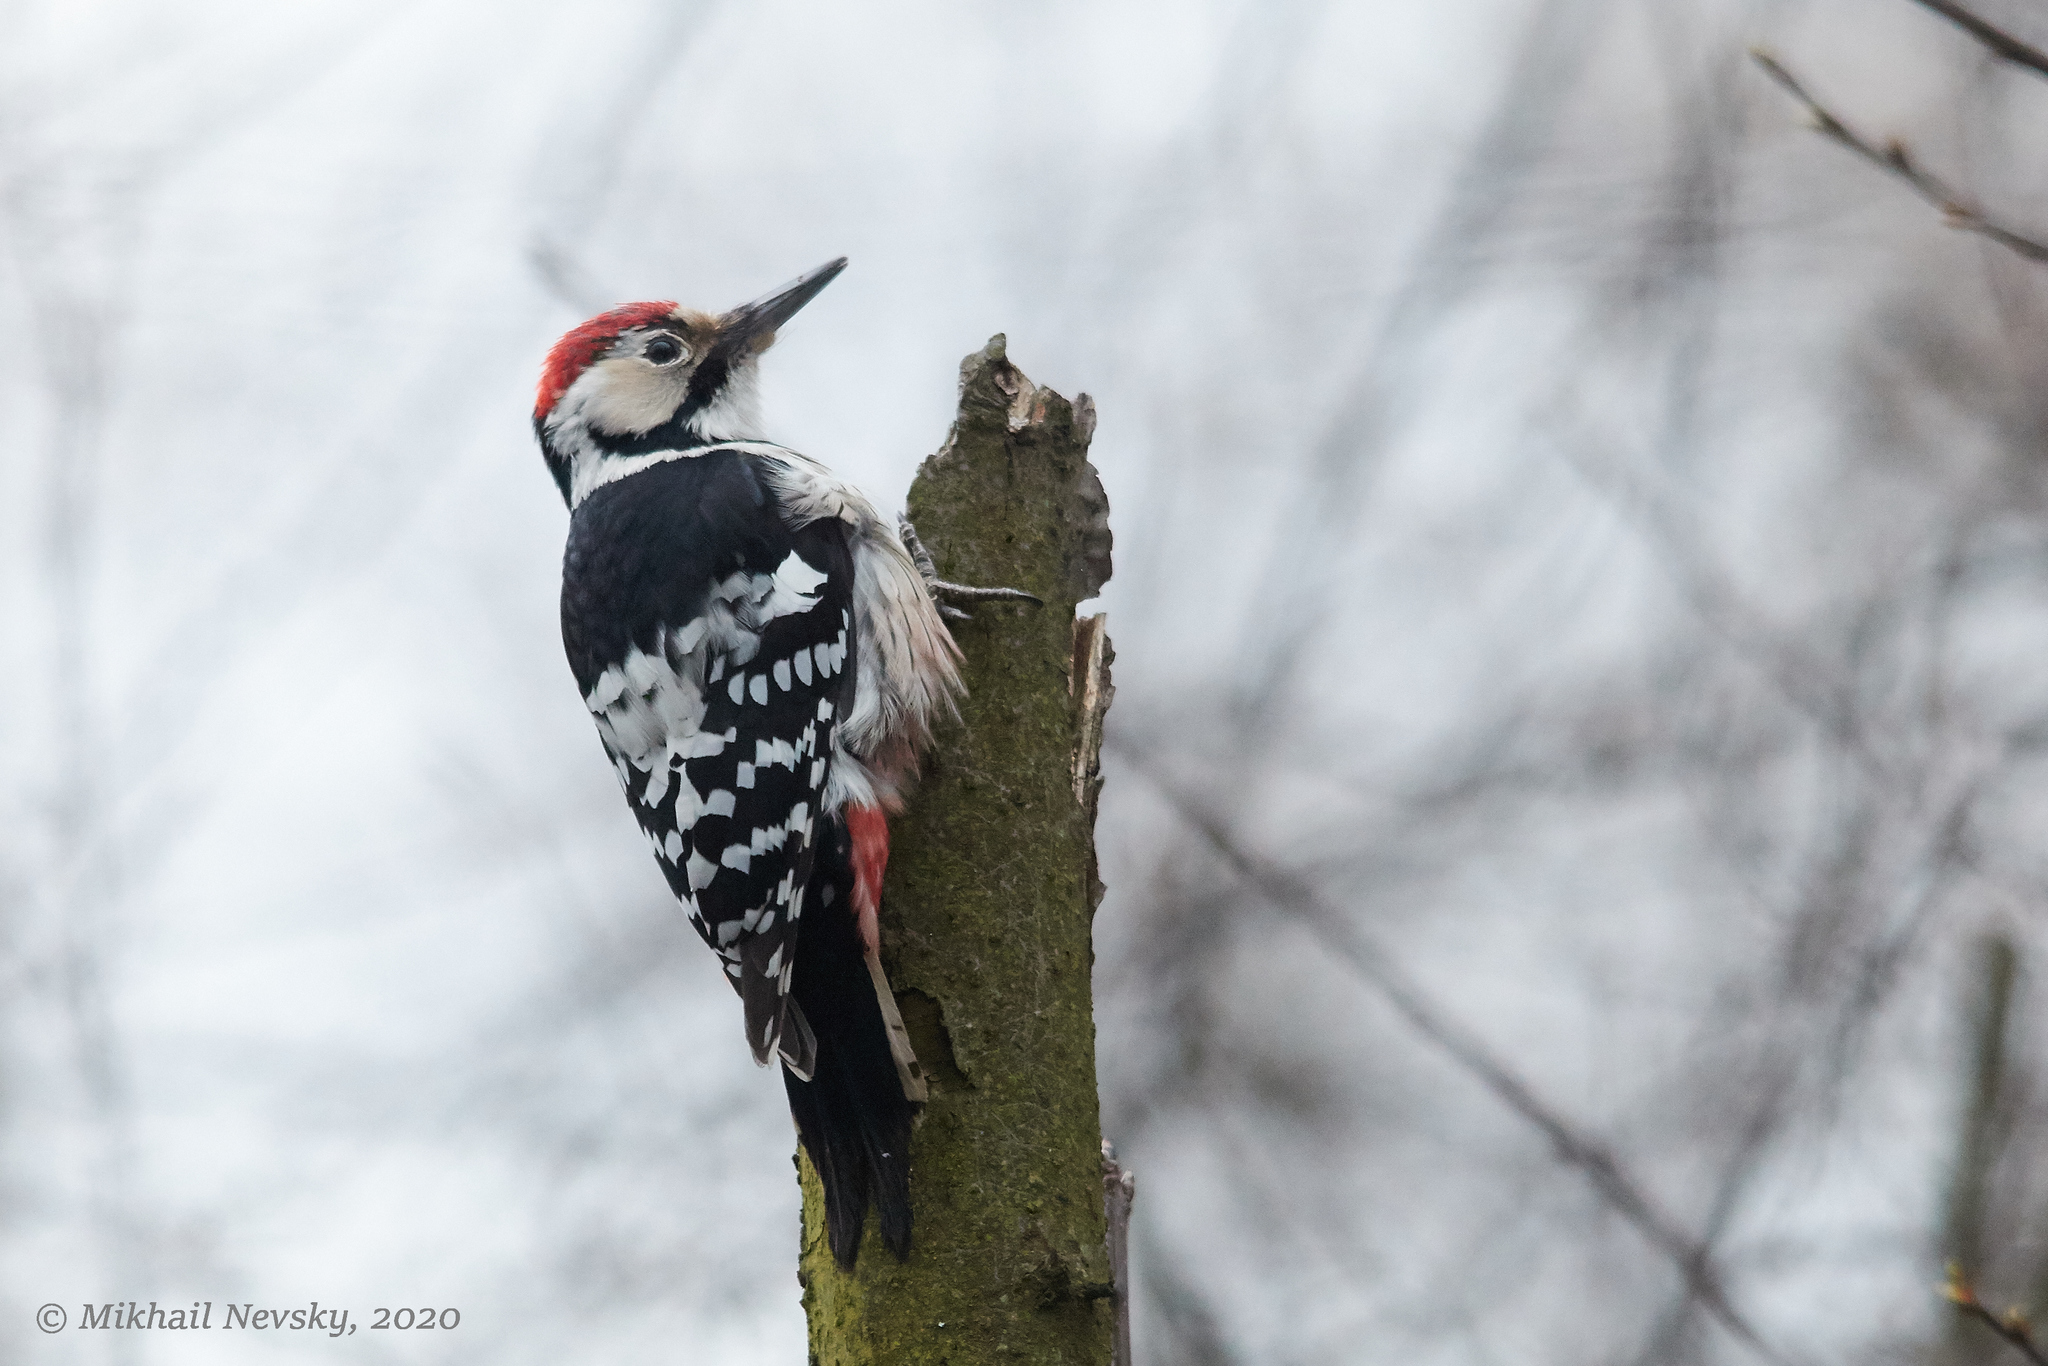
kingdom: Animalia
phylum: Chordata
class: Aves
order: Piciformes
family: Picidae
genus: Dendrocopos
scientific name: Dendrocopos leucotos
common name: White-backed woodpecker
